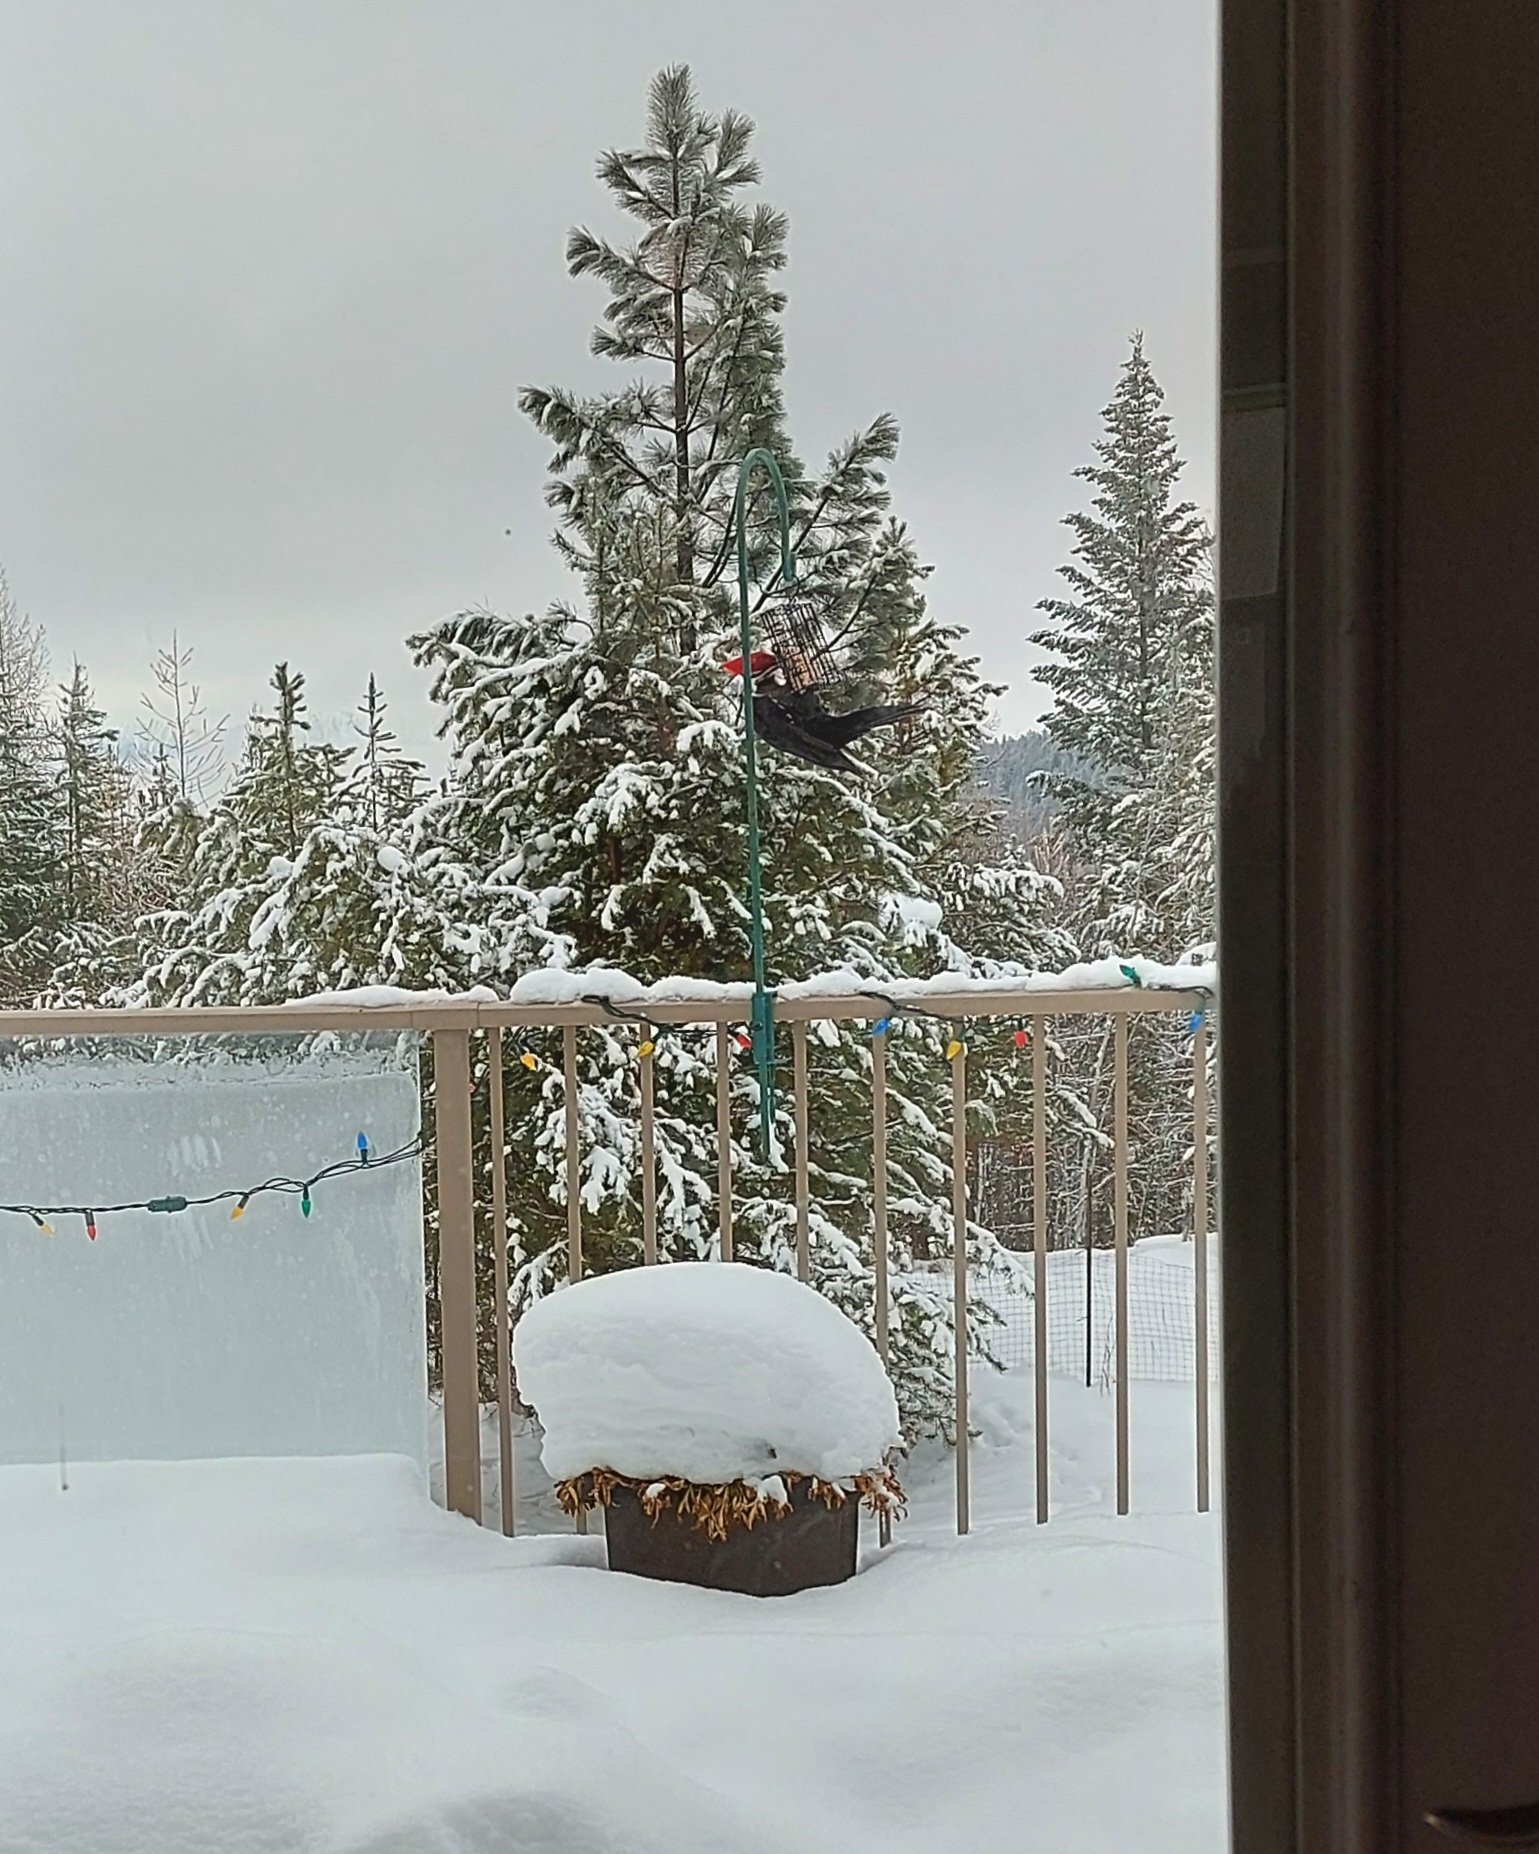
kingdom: Animalia
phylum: Chordata
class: Aves
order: Piciformes
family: Picidae
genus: Dryocopus
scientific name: Dryocopus pileatus
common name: Pileated woodpecker
